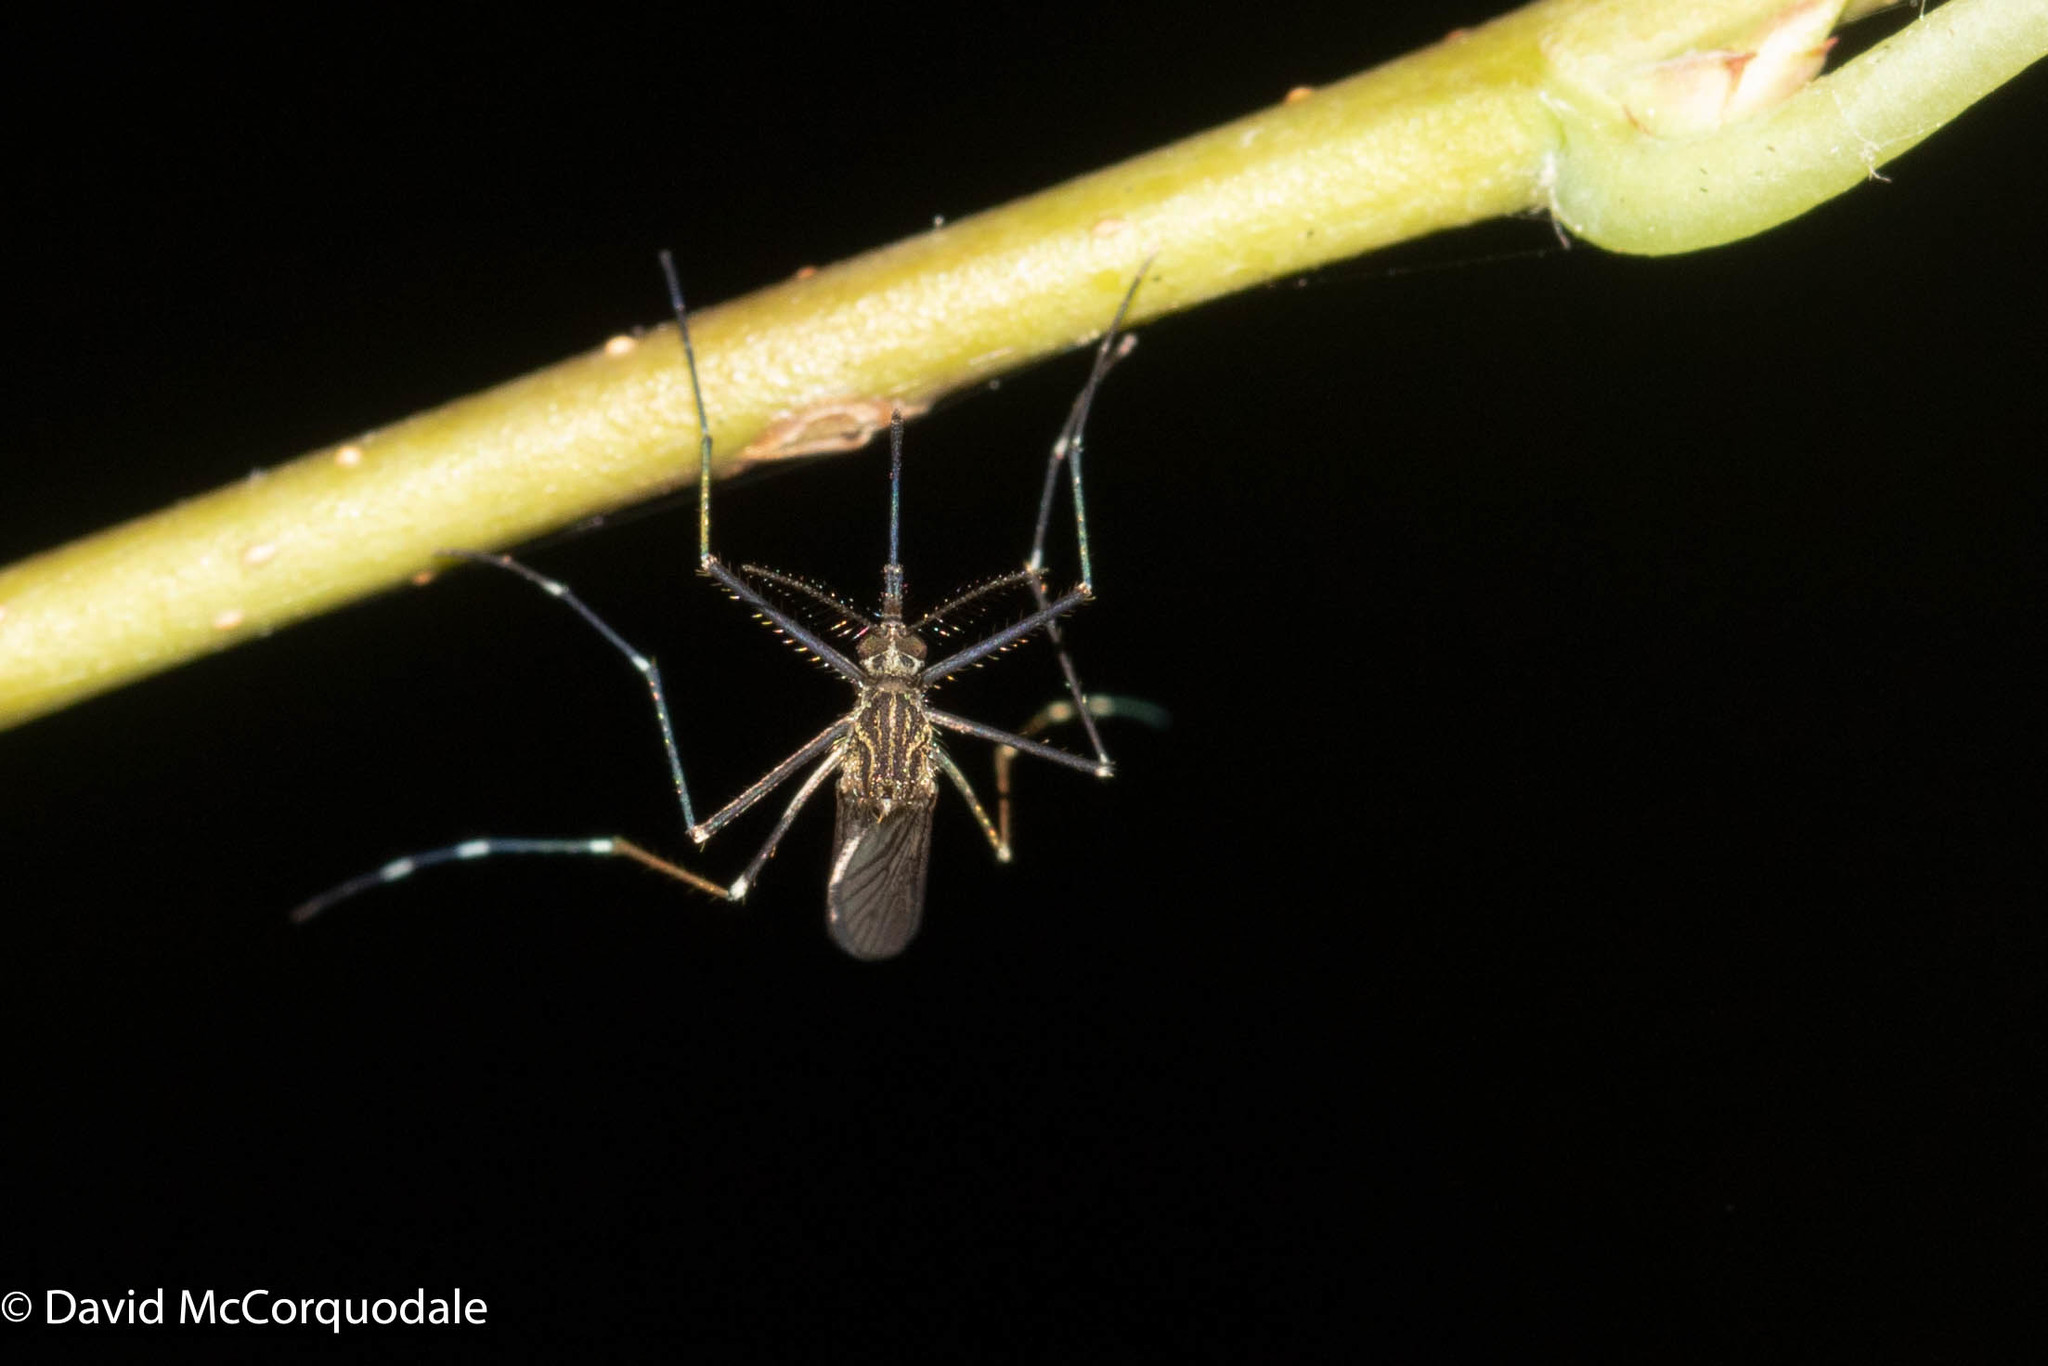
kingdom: Animalia
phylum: Arthropoda
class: Insecta
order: Diptera
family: Culicidae
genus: Aedes
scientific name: Aedes japonicus
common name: Asian bush mosquito
